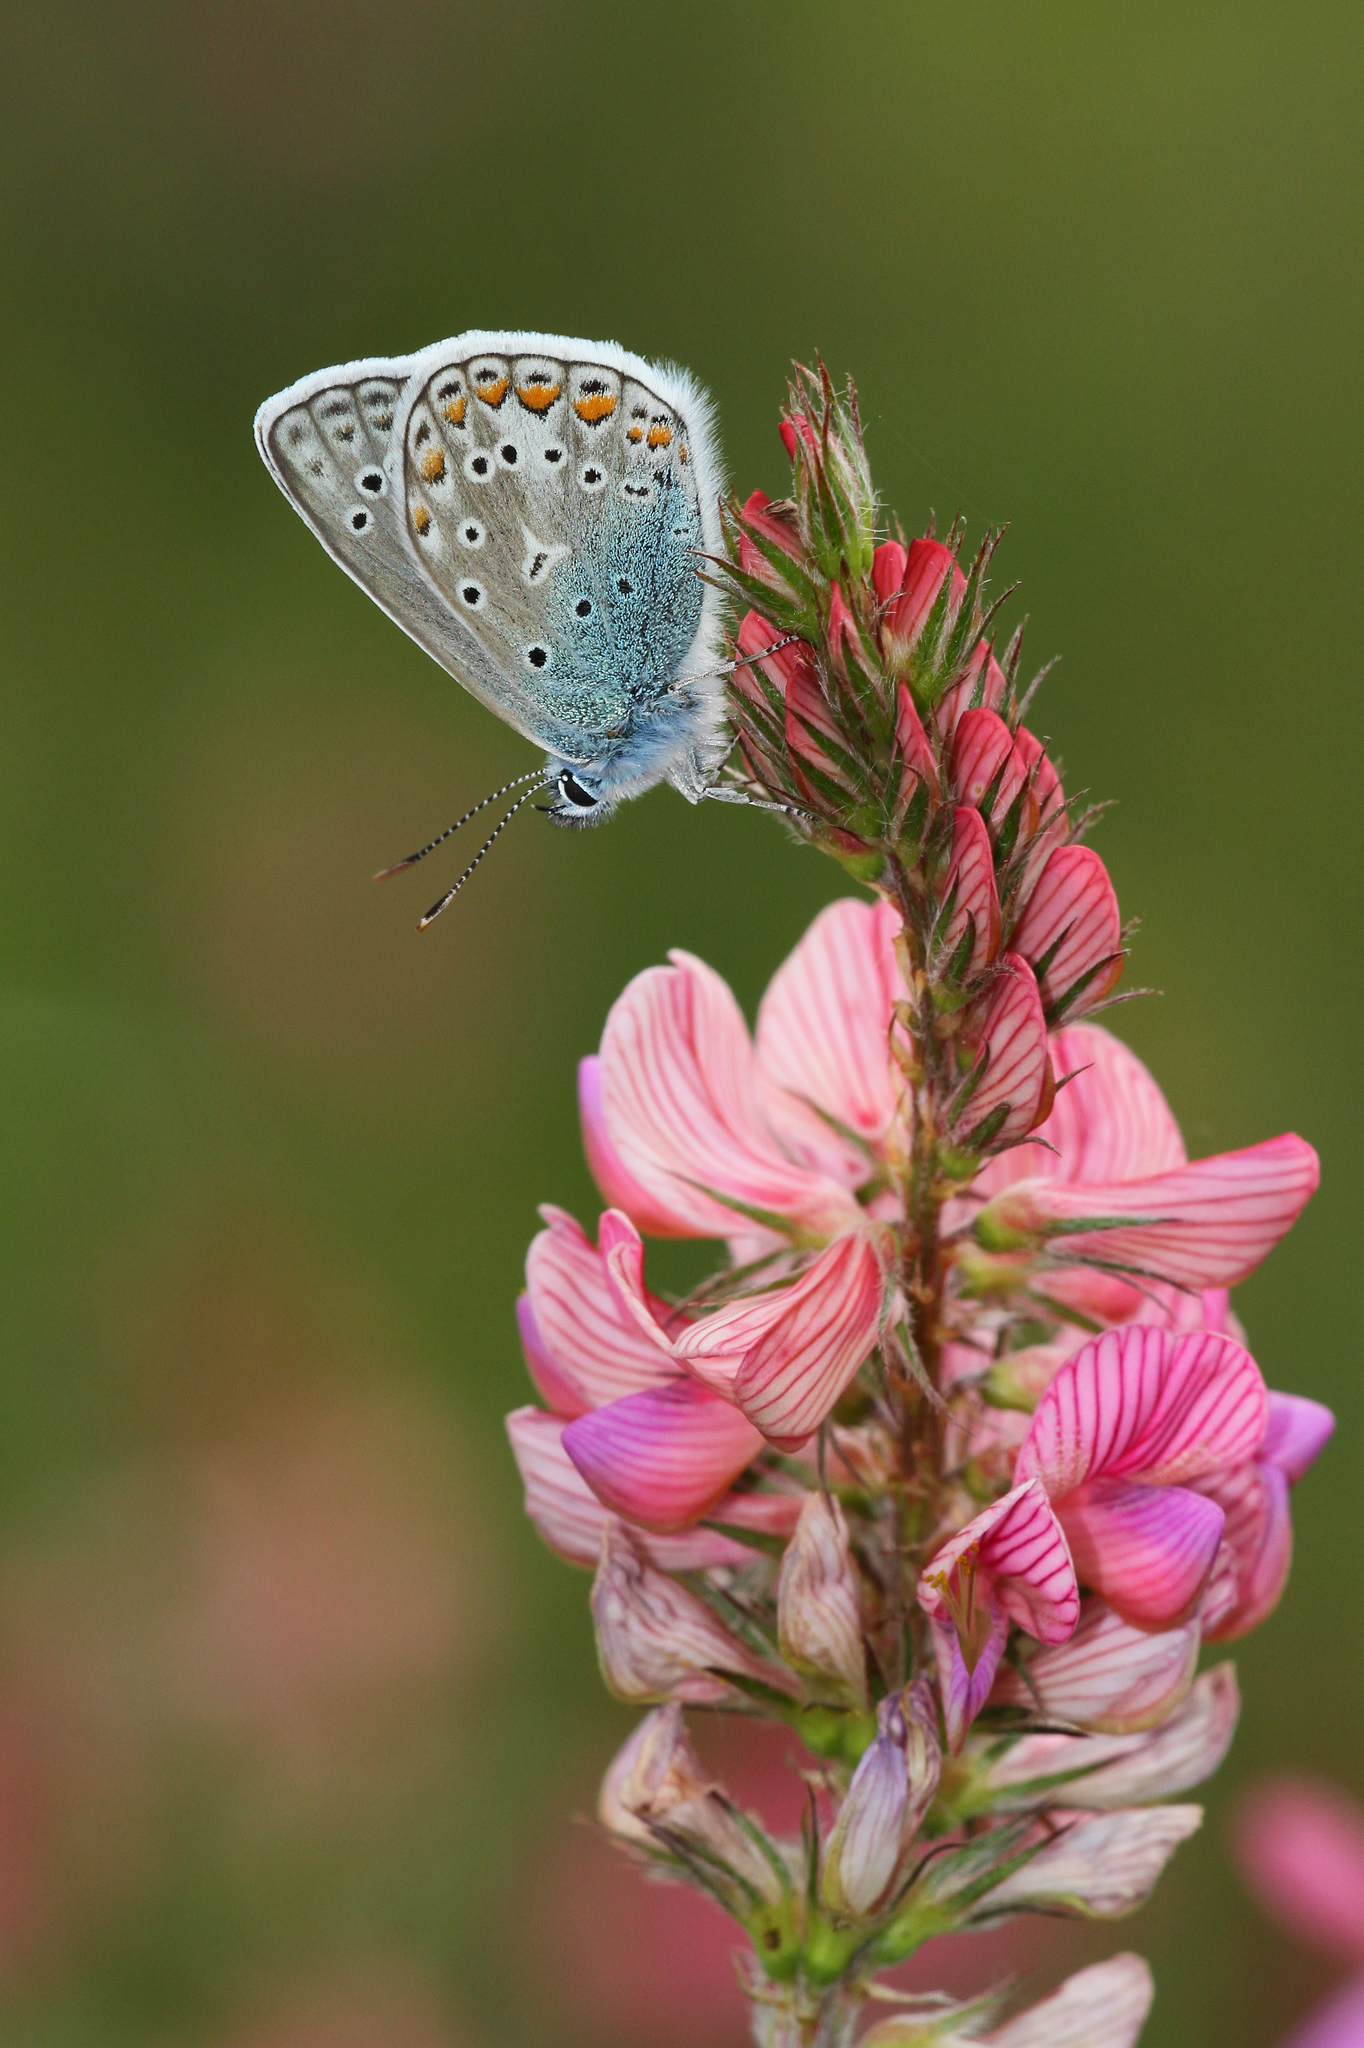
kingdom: Animalia
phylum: Arthropoda
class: Insecta
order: Lepidoptera
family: Lycaenidae
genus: Polyommatus
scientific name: Polyommatus icarus
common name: Common blue
